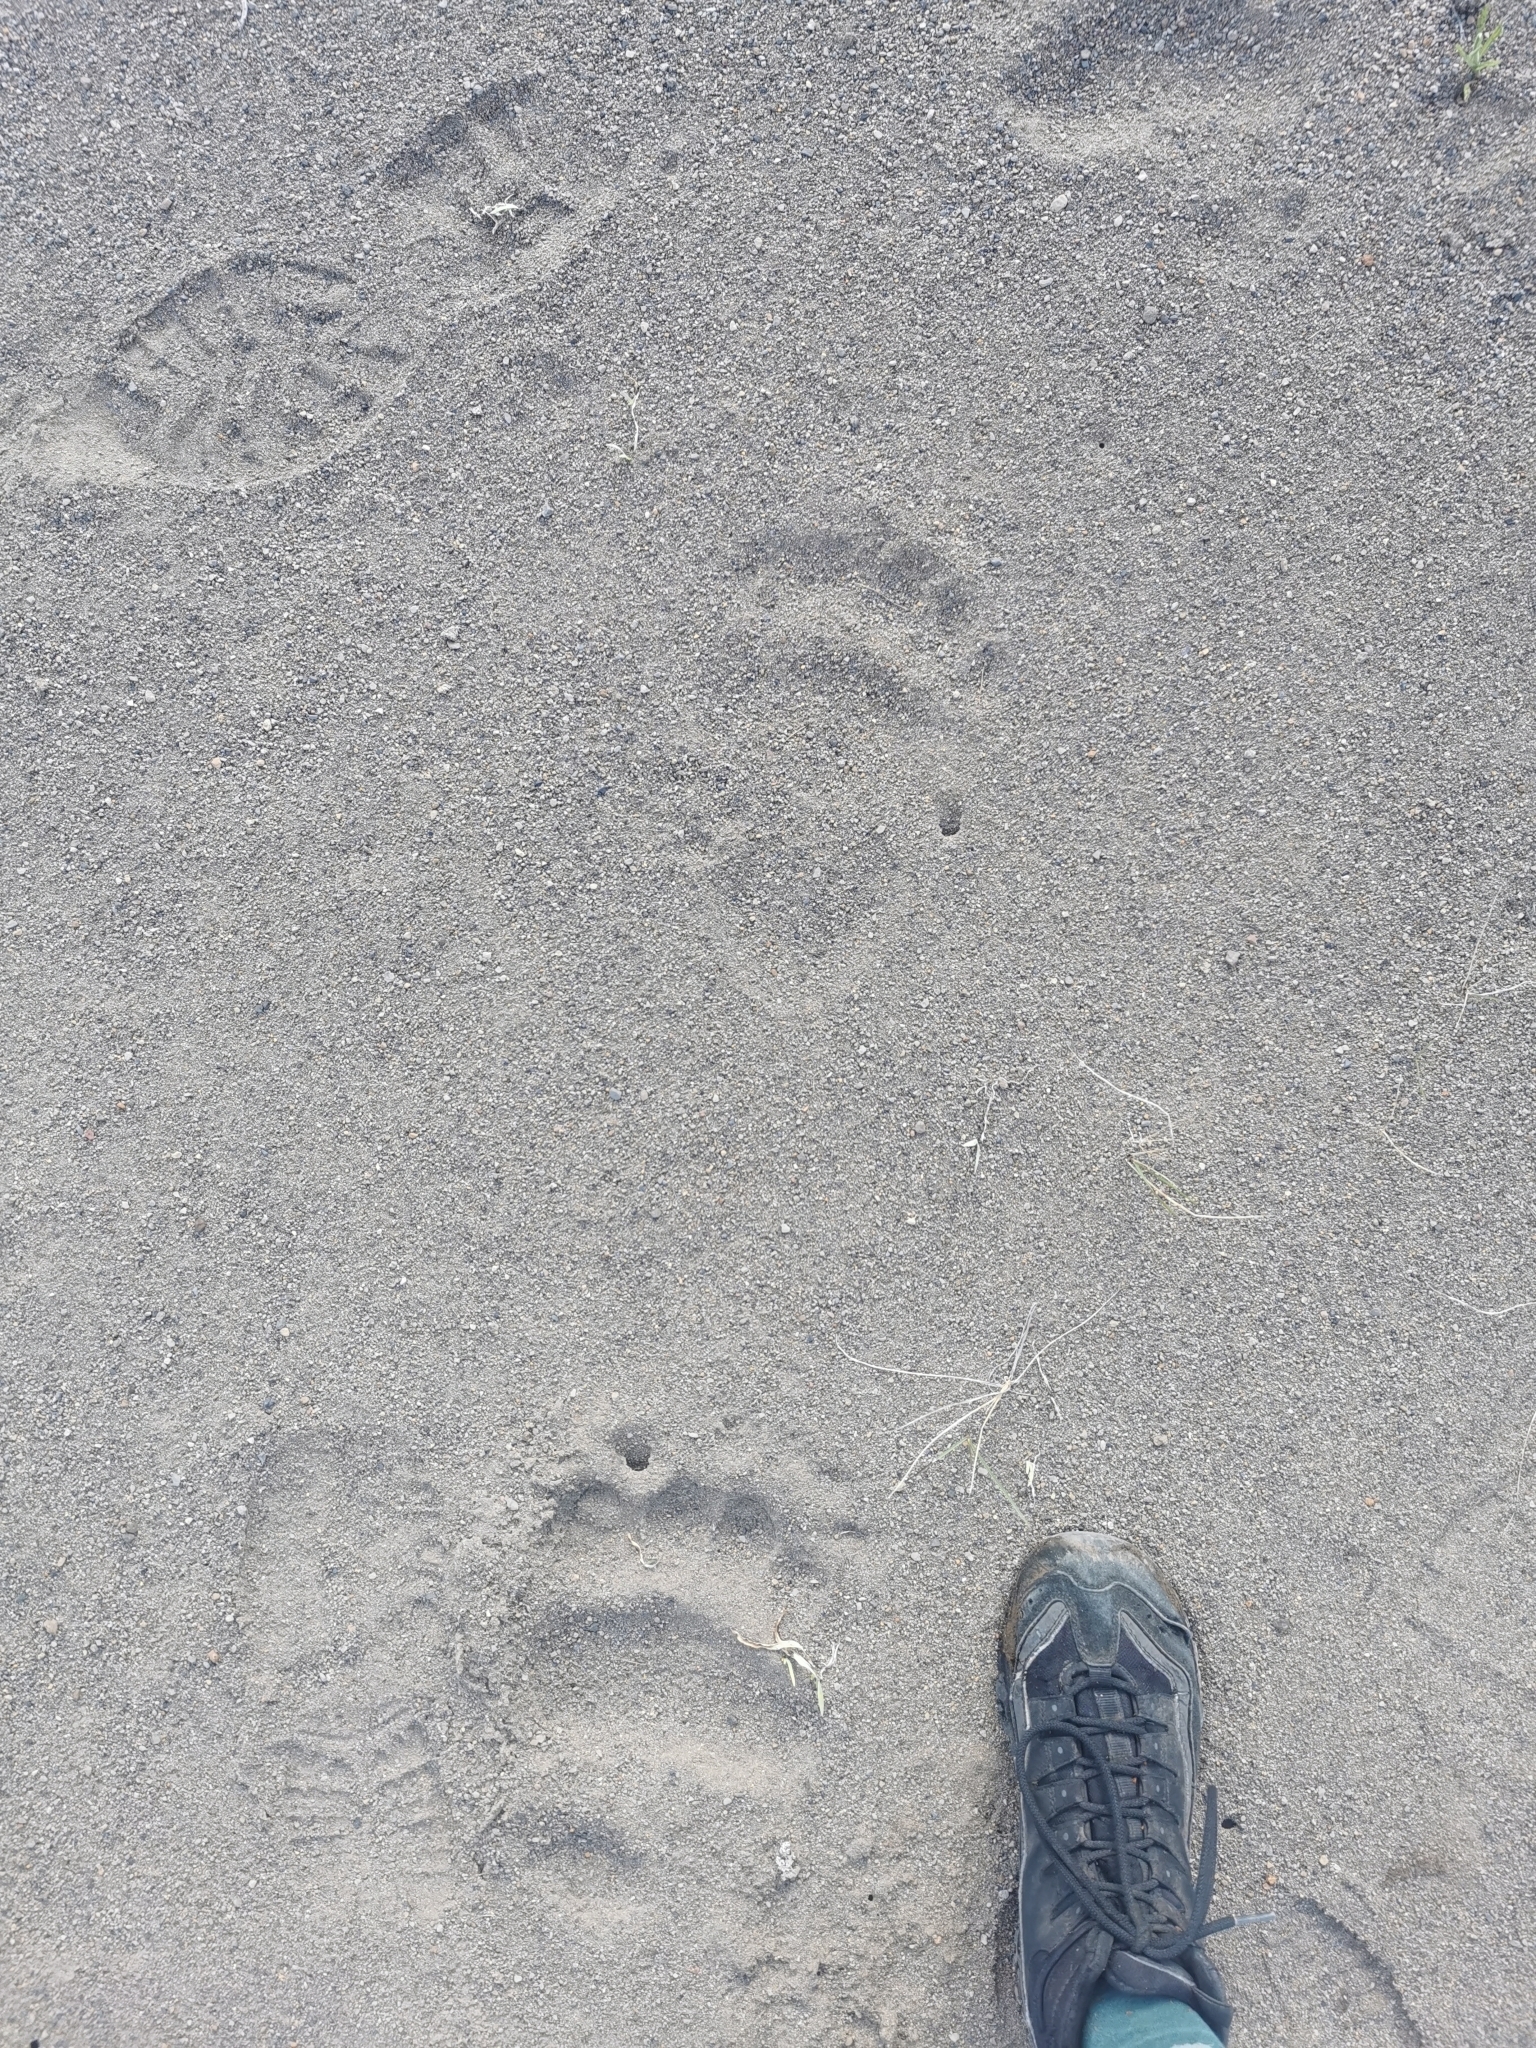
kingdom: Animalia
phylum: Chordata
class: Mammalia
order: Carnivora
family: Ursidae
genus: Ursus
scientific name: Ursus arctos
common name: Brown bear
